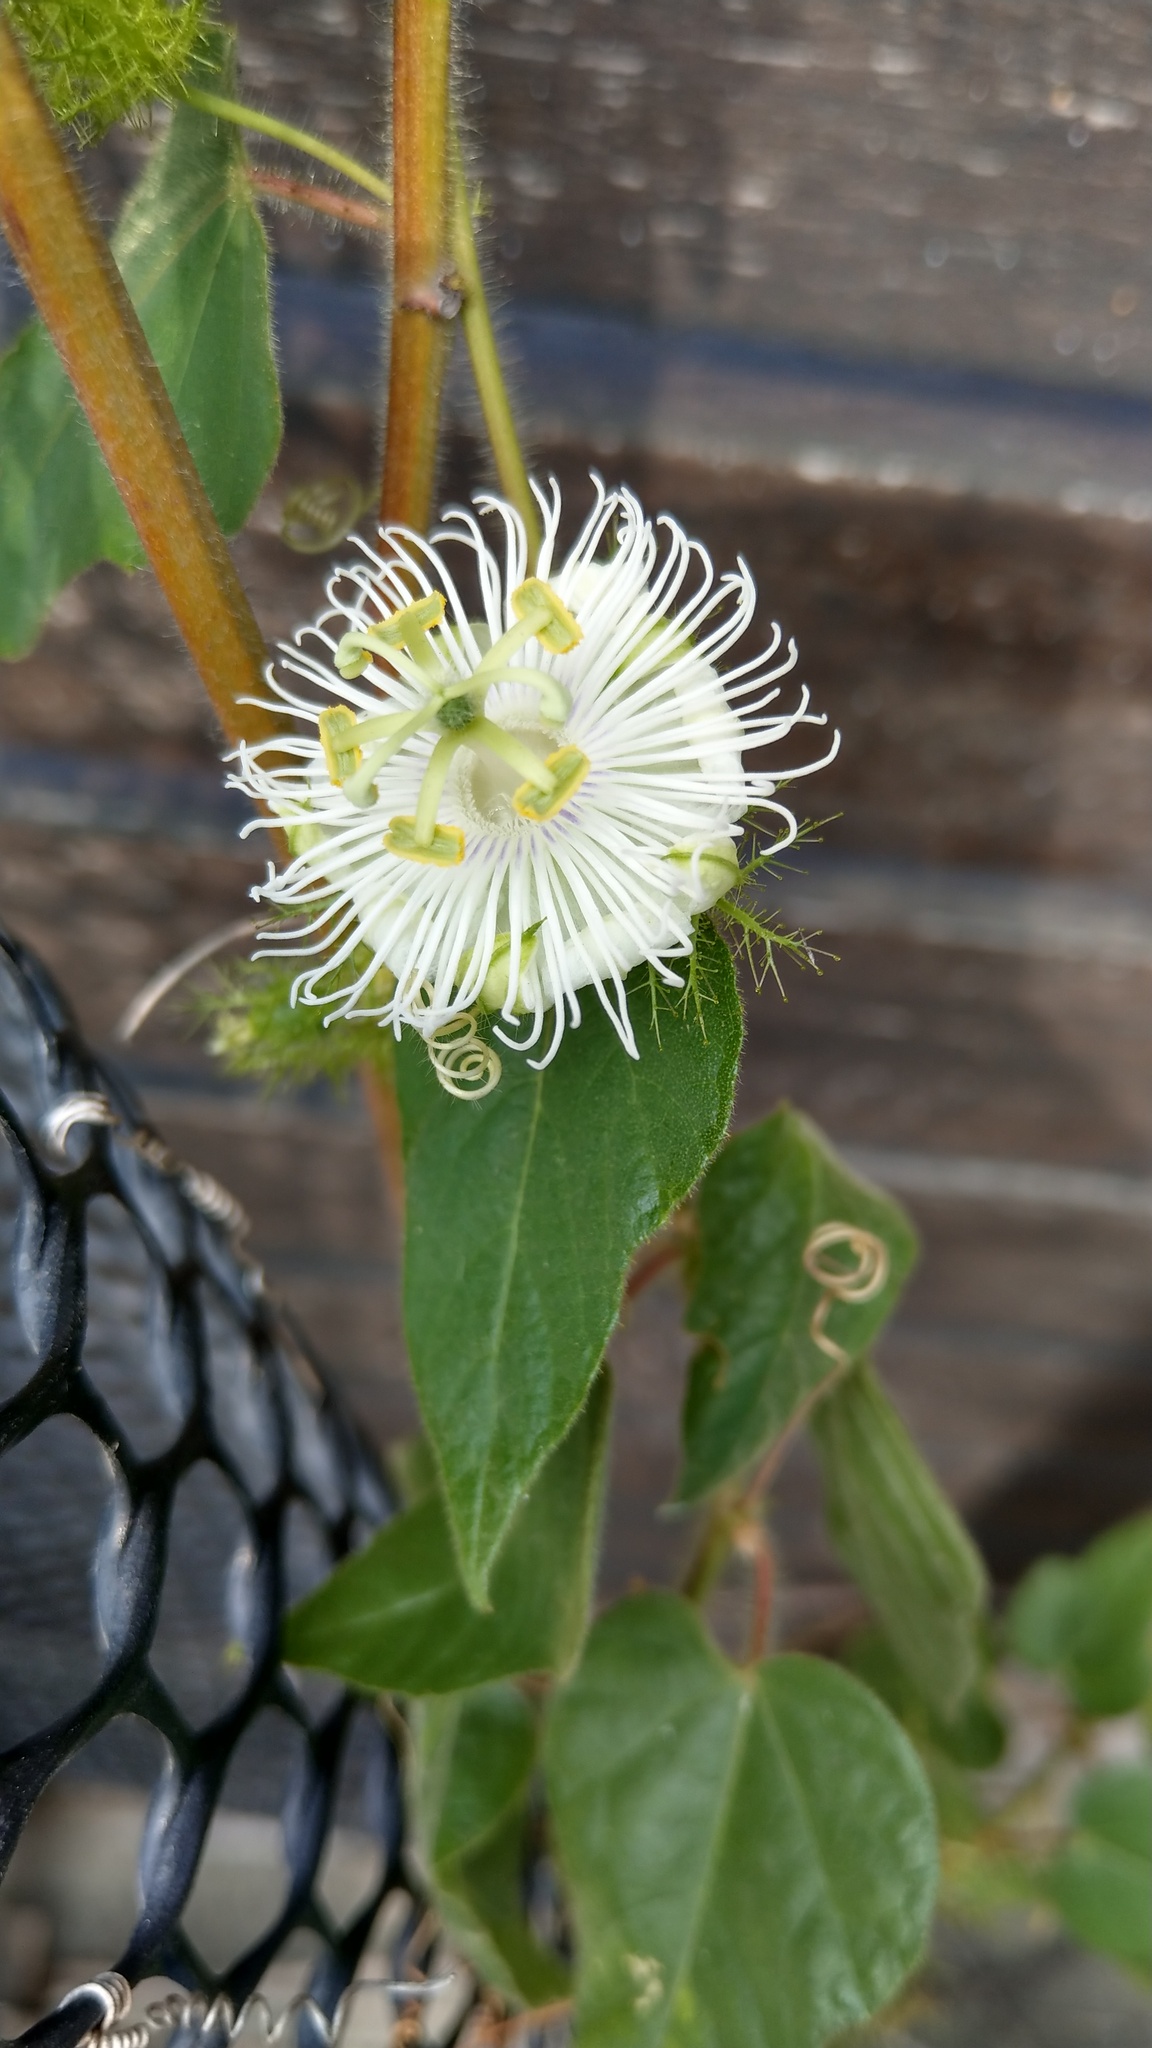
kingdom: Plantae
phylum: Tracheophyta
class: Magnoliopsida
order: Malpighiales
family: Passifloraceae
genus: Passiflora
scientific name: Passiflora foetida
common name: Fetid passionflower
